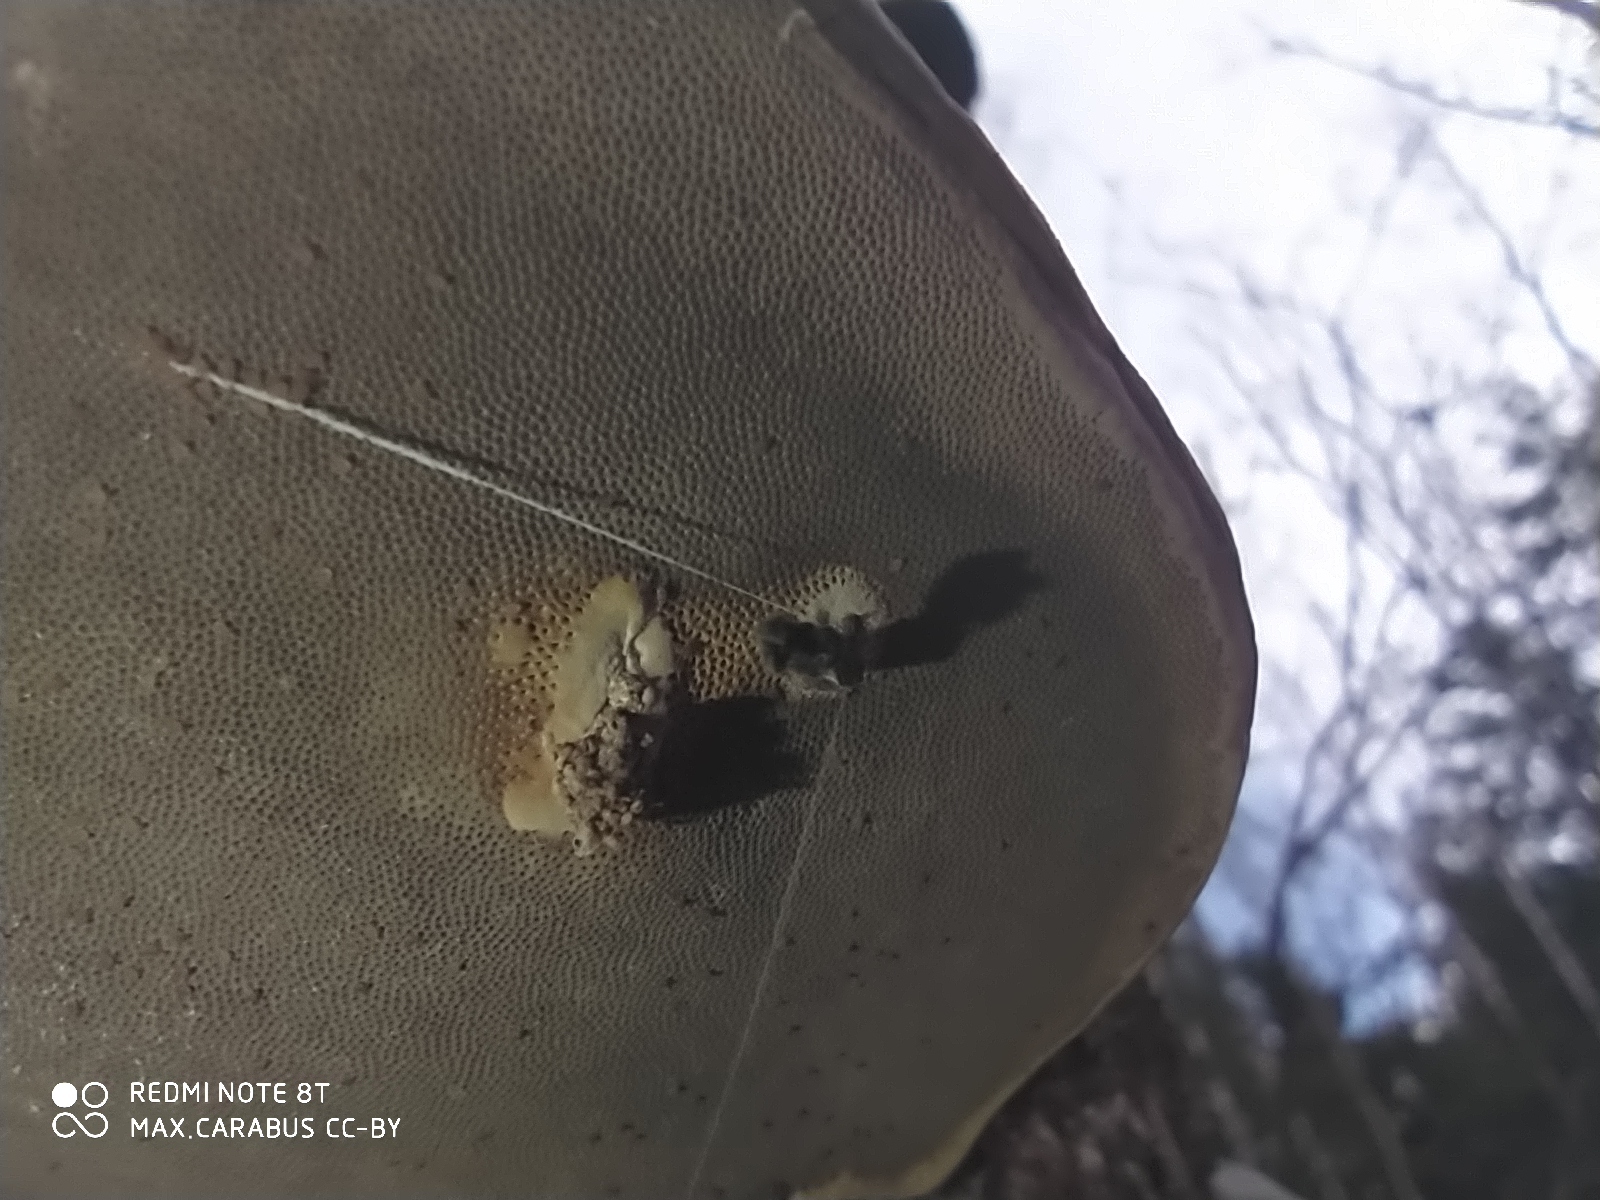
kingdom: Fungi
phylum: Basidiomycota
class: Agaricomycetes
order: Polyporales
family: Polyporaceae
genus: Fomes
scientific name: Fomes fomentarius
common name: Hoof fungus
